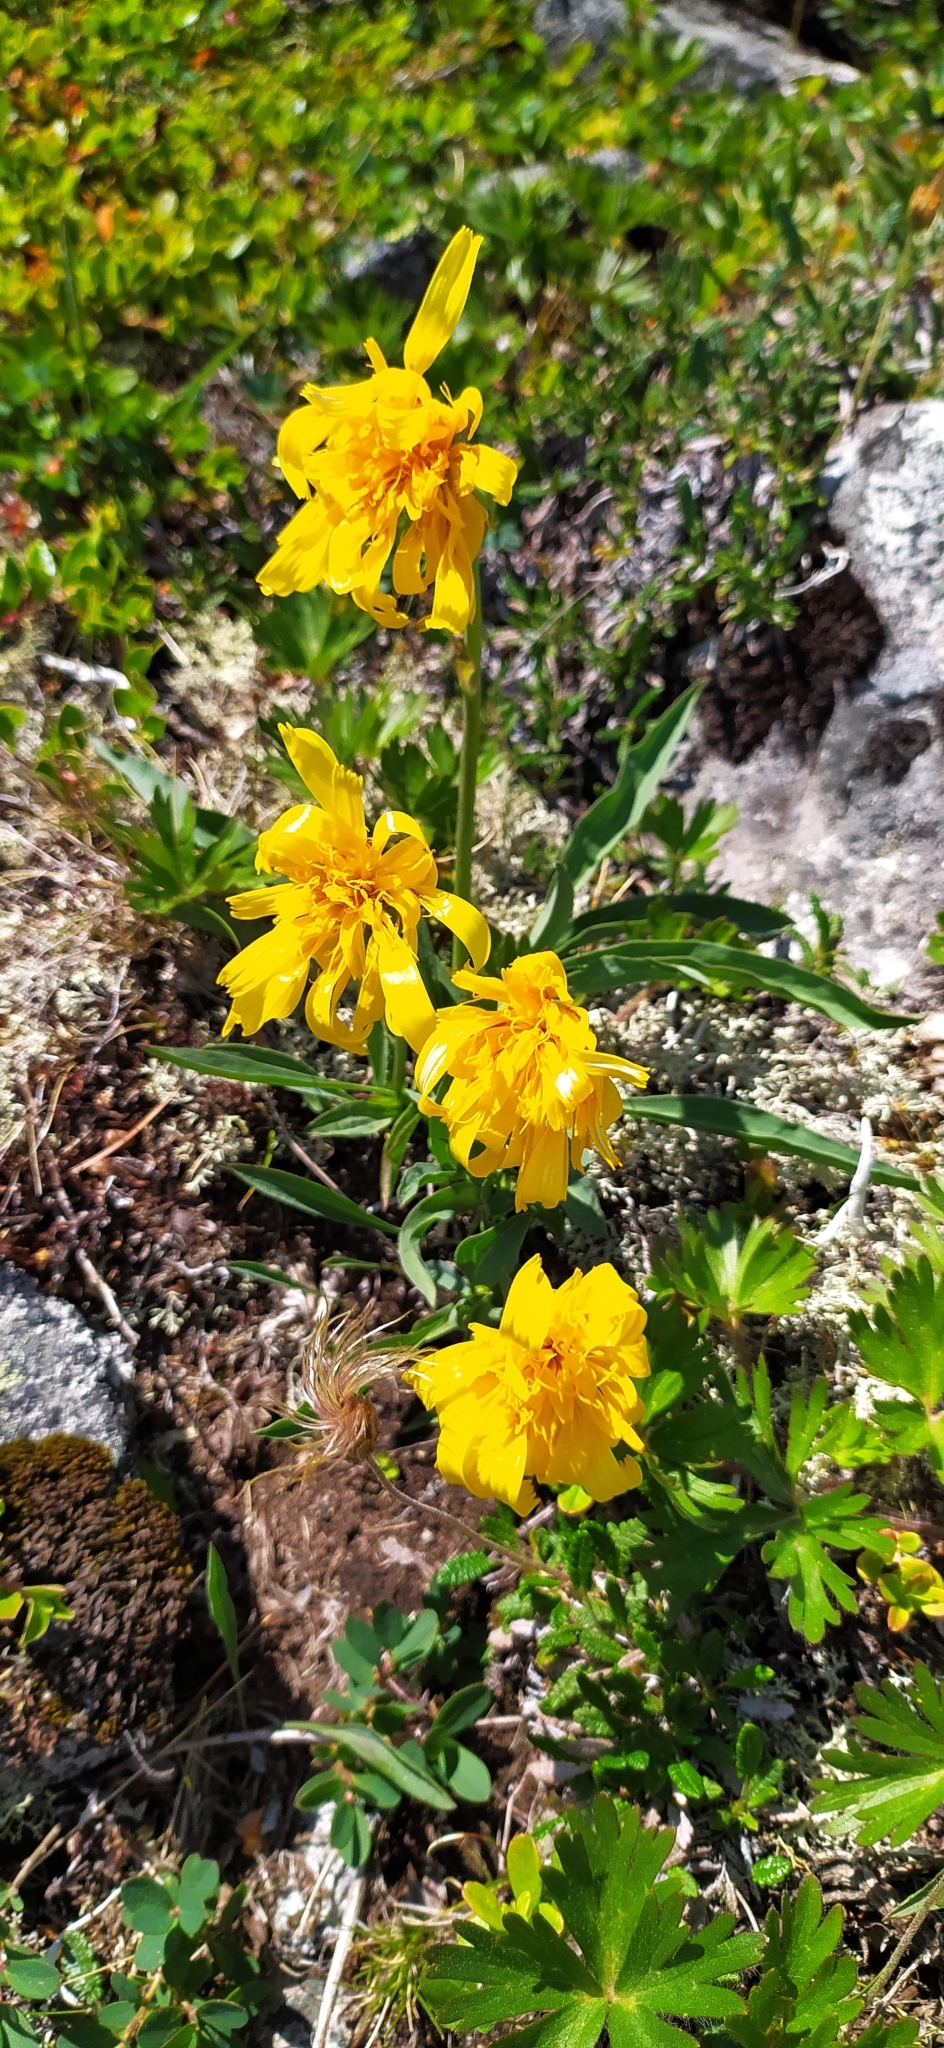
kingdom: Plantae
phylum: Tracheophyta
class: Magnoliopsida
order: Asterales
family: Asteraceae
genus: Scorzonera
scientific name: Scorzonera glabra
